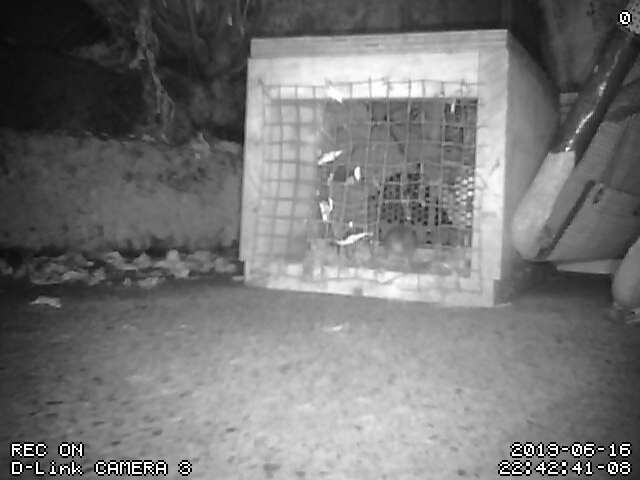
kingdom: Animalia
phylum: Chordata
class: Mammalia
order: Rodentia
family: Muridae
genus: Mus
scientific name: Mus musculus
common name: House mouse
